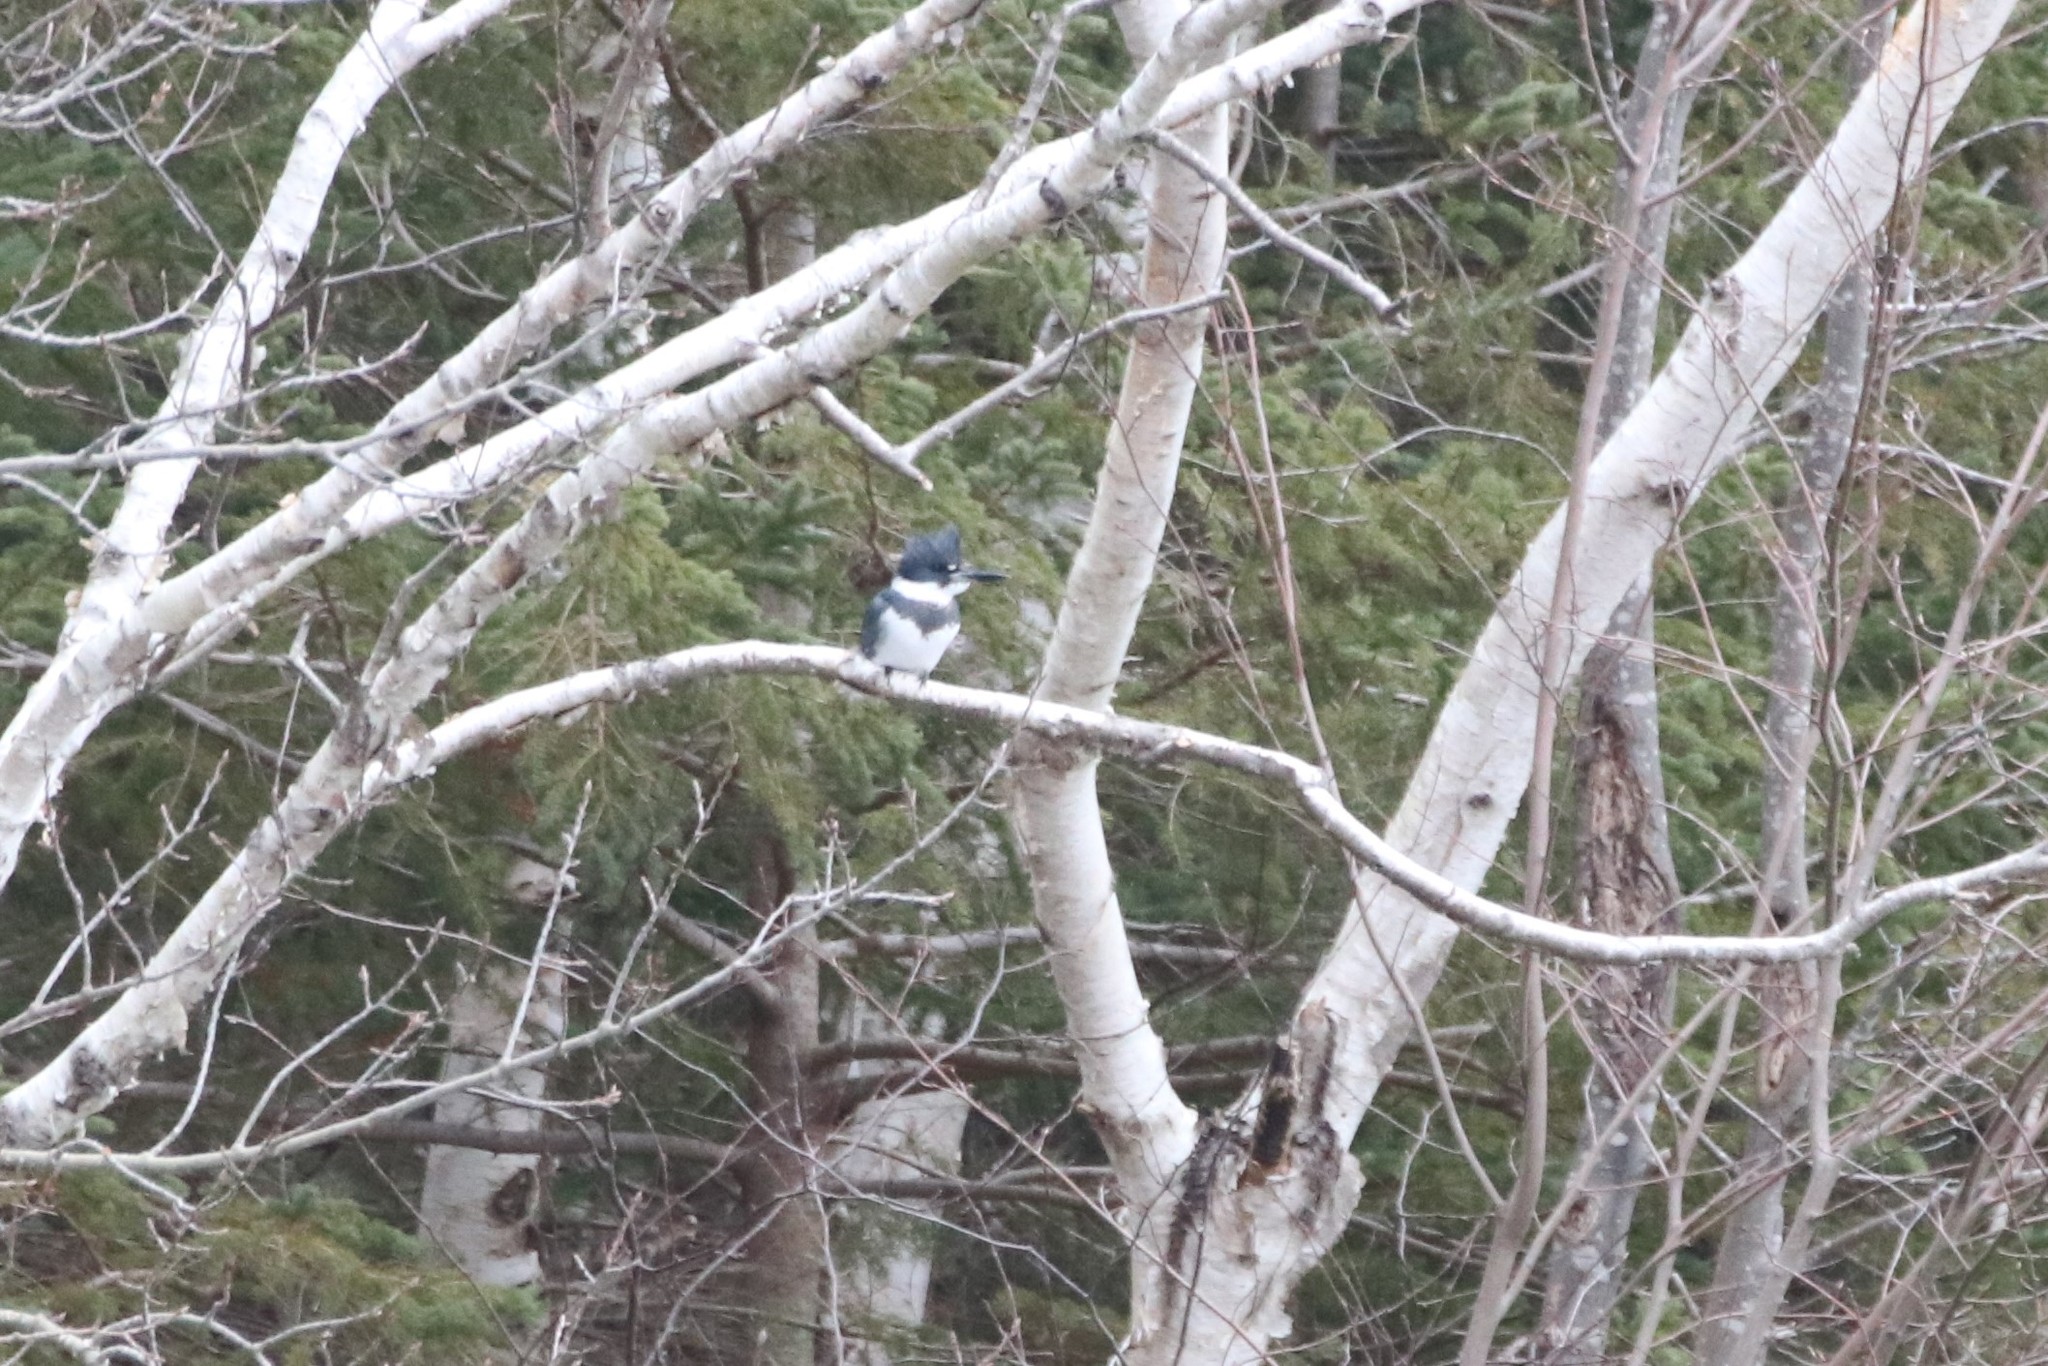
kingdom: Animalia
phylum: Chordata
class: Aves
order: Coraciiformes
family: Alcedinidae
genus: Megaceryle
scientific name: Megaceryle alcyon
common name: Belted kingfisher
